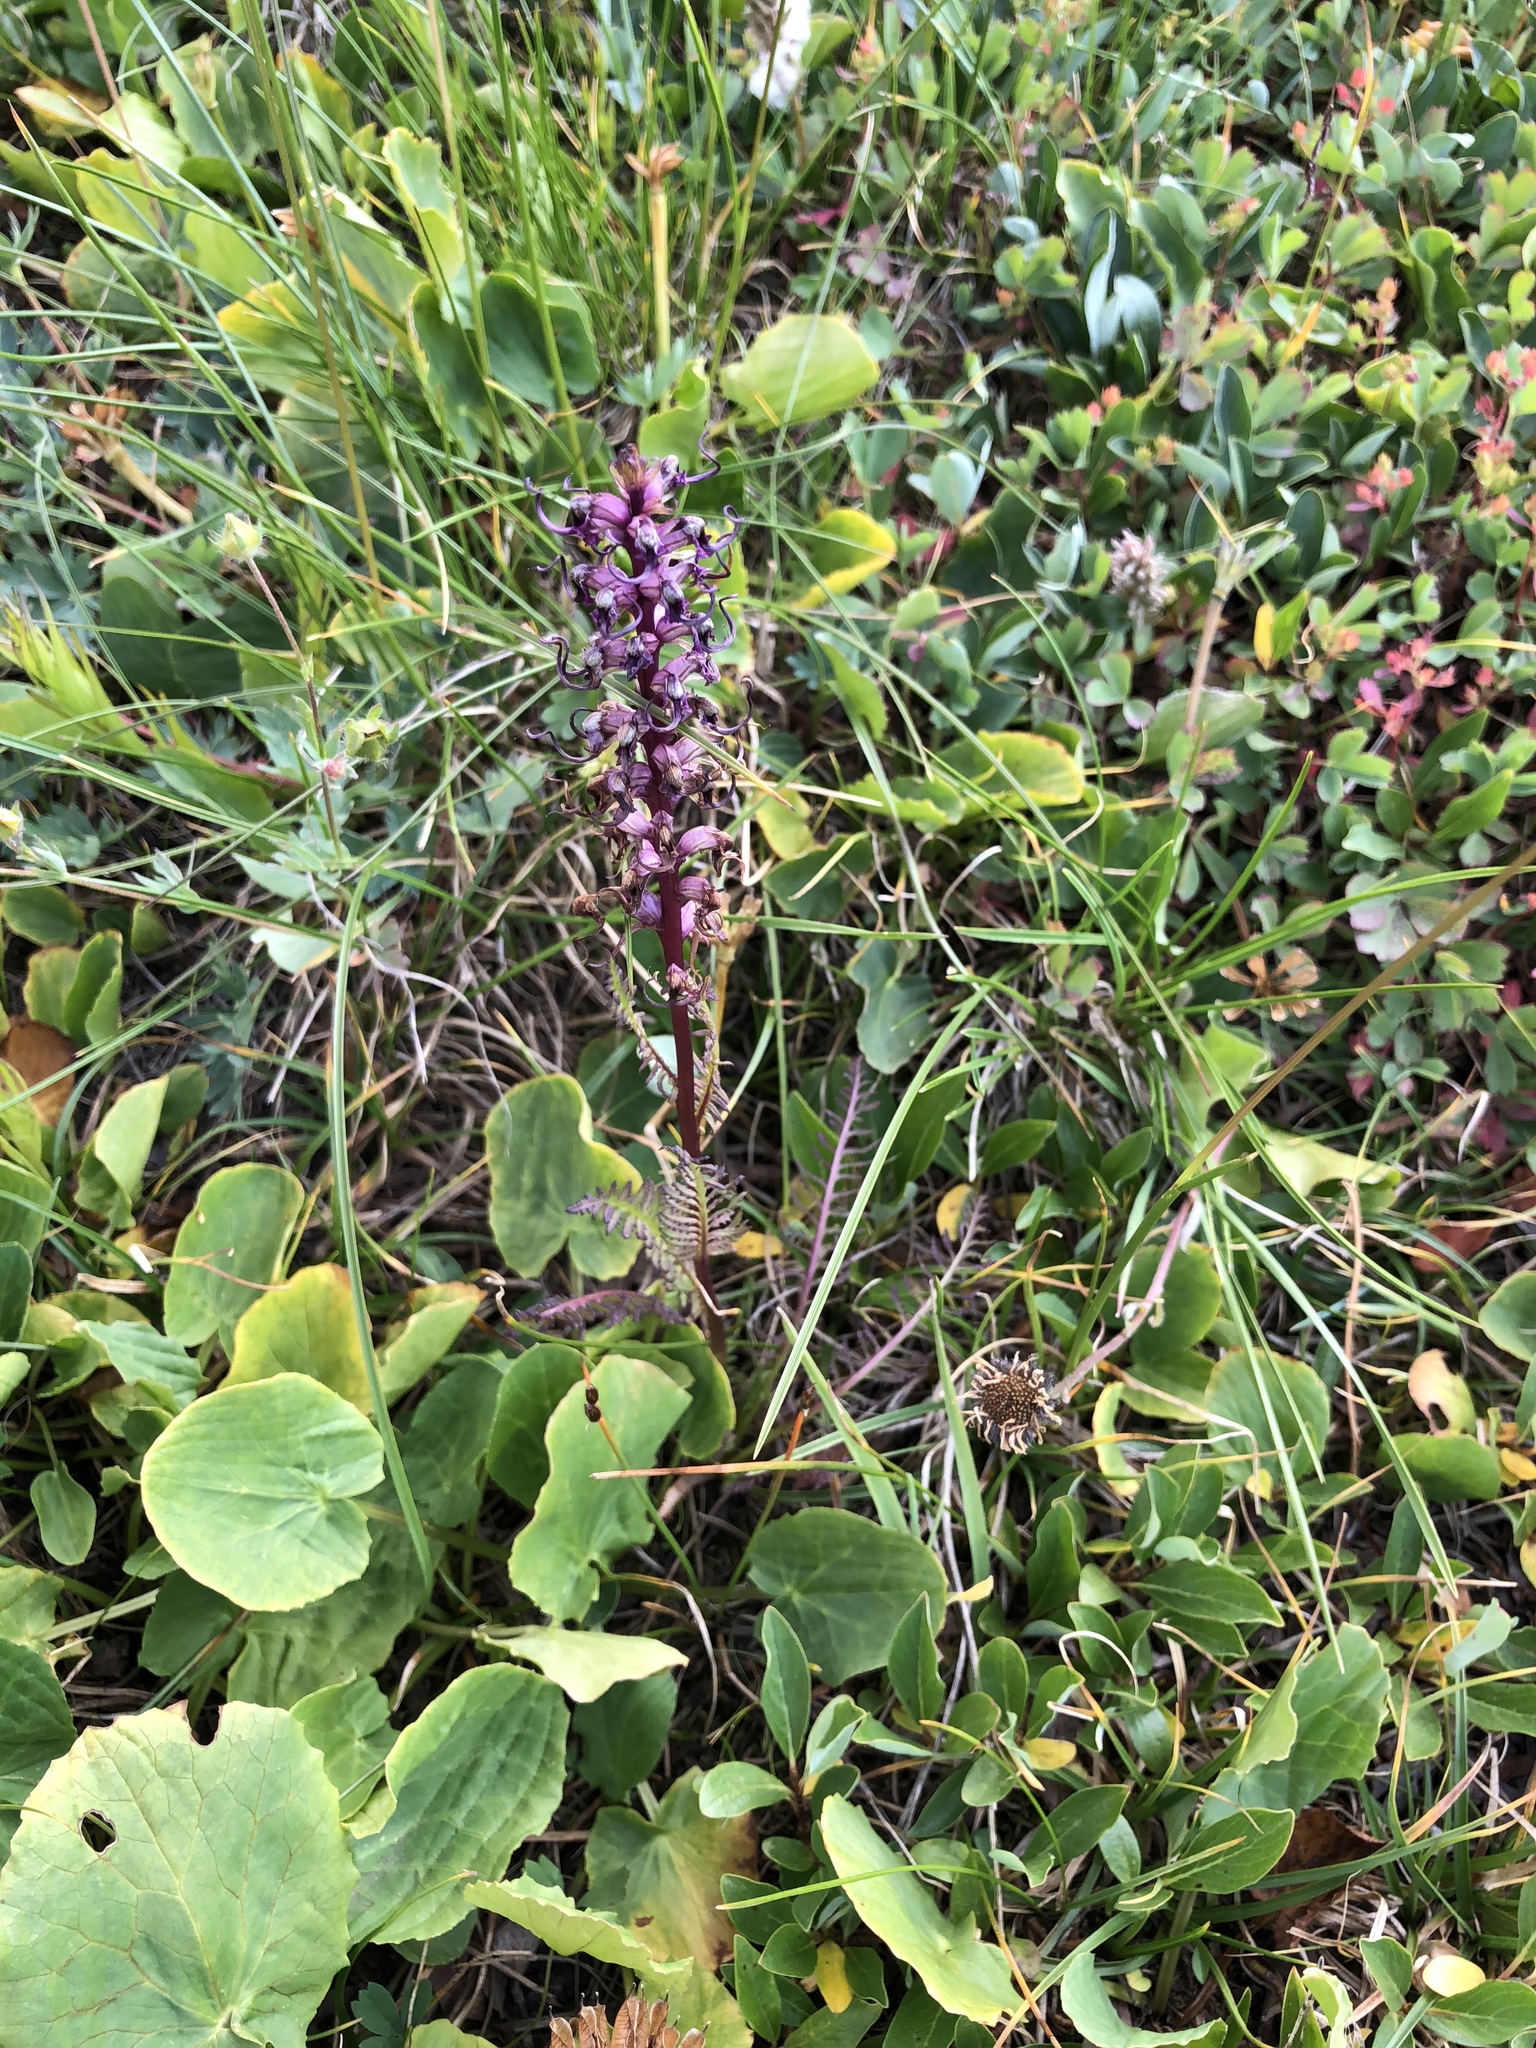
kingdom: Plantae
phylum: Tracheophyta
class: Magnoliopsida
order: Lamiales
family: Orobanchaceae
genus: Pedicularis
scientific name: Pedicularis groenlandica
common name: Elephant's-head
